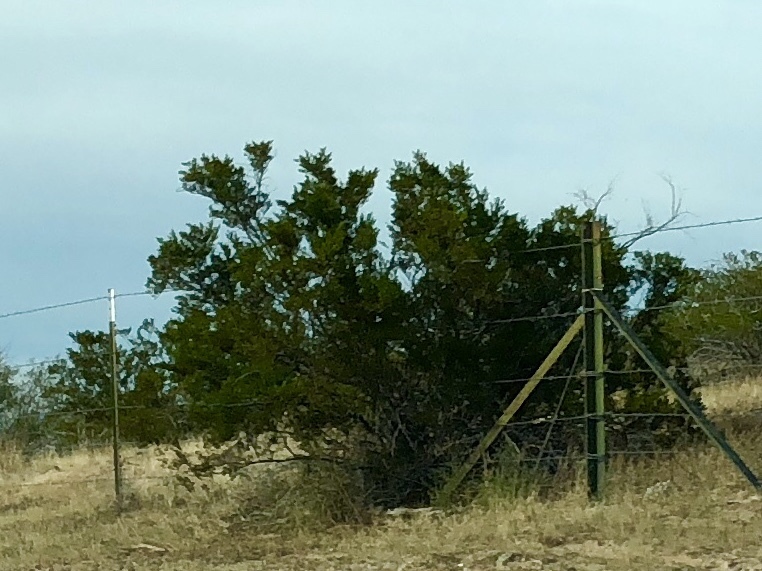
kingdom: Plantae
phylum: Tracheophyta
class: Magnoliopsida
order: Zygophyllales
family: Zygophyllaceae
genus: Larrea
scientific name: Larrea tridentata
